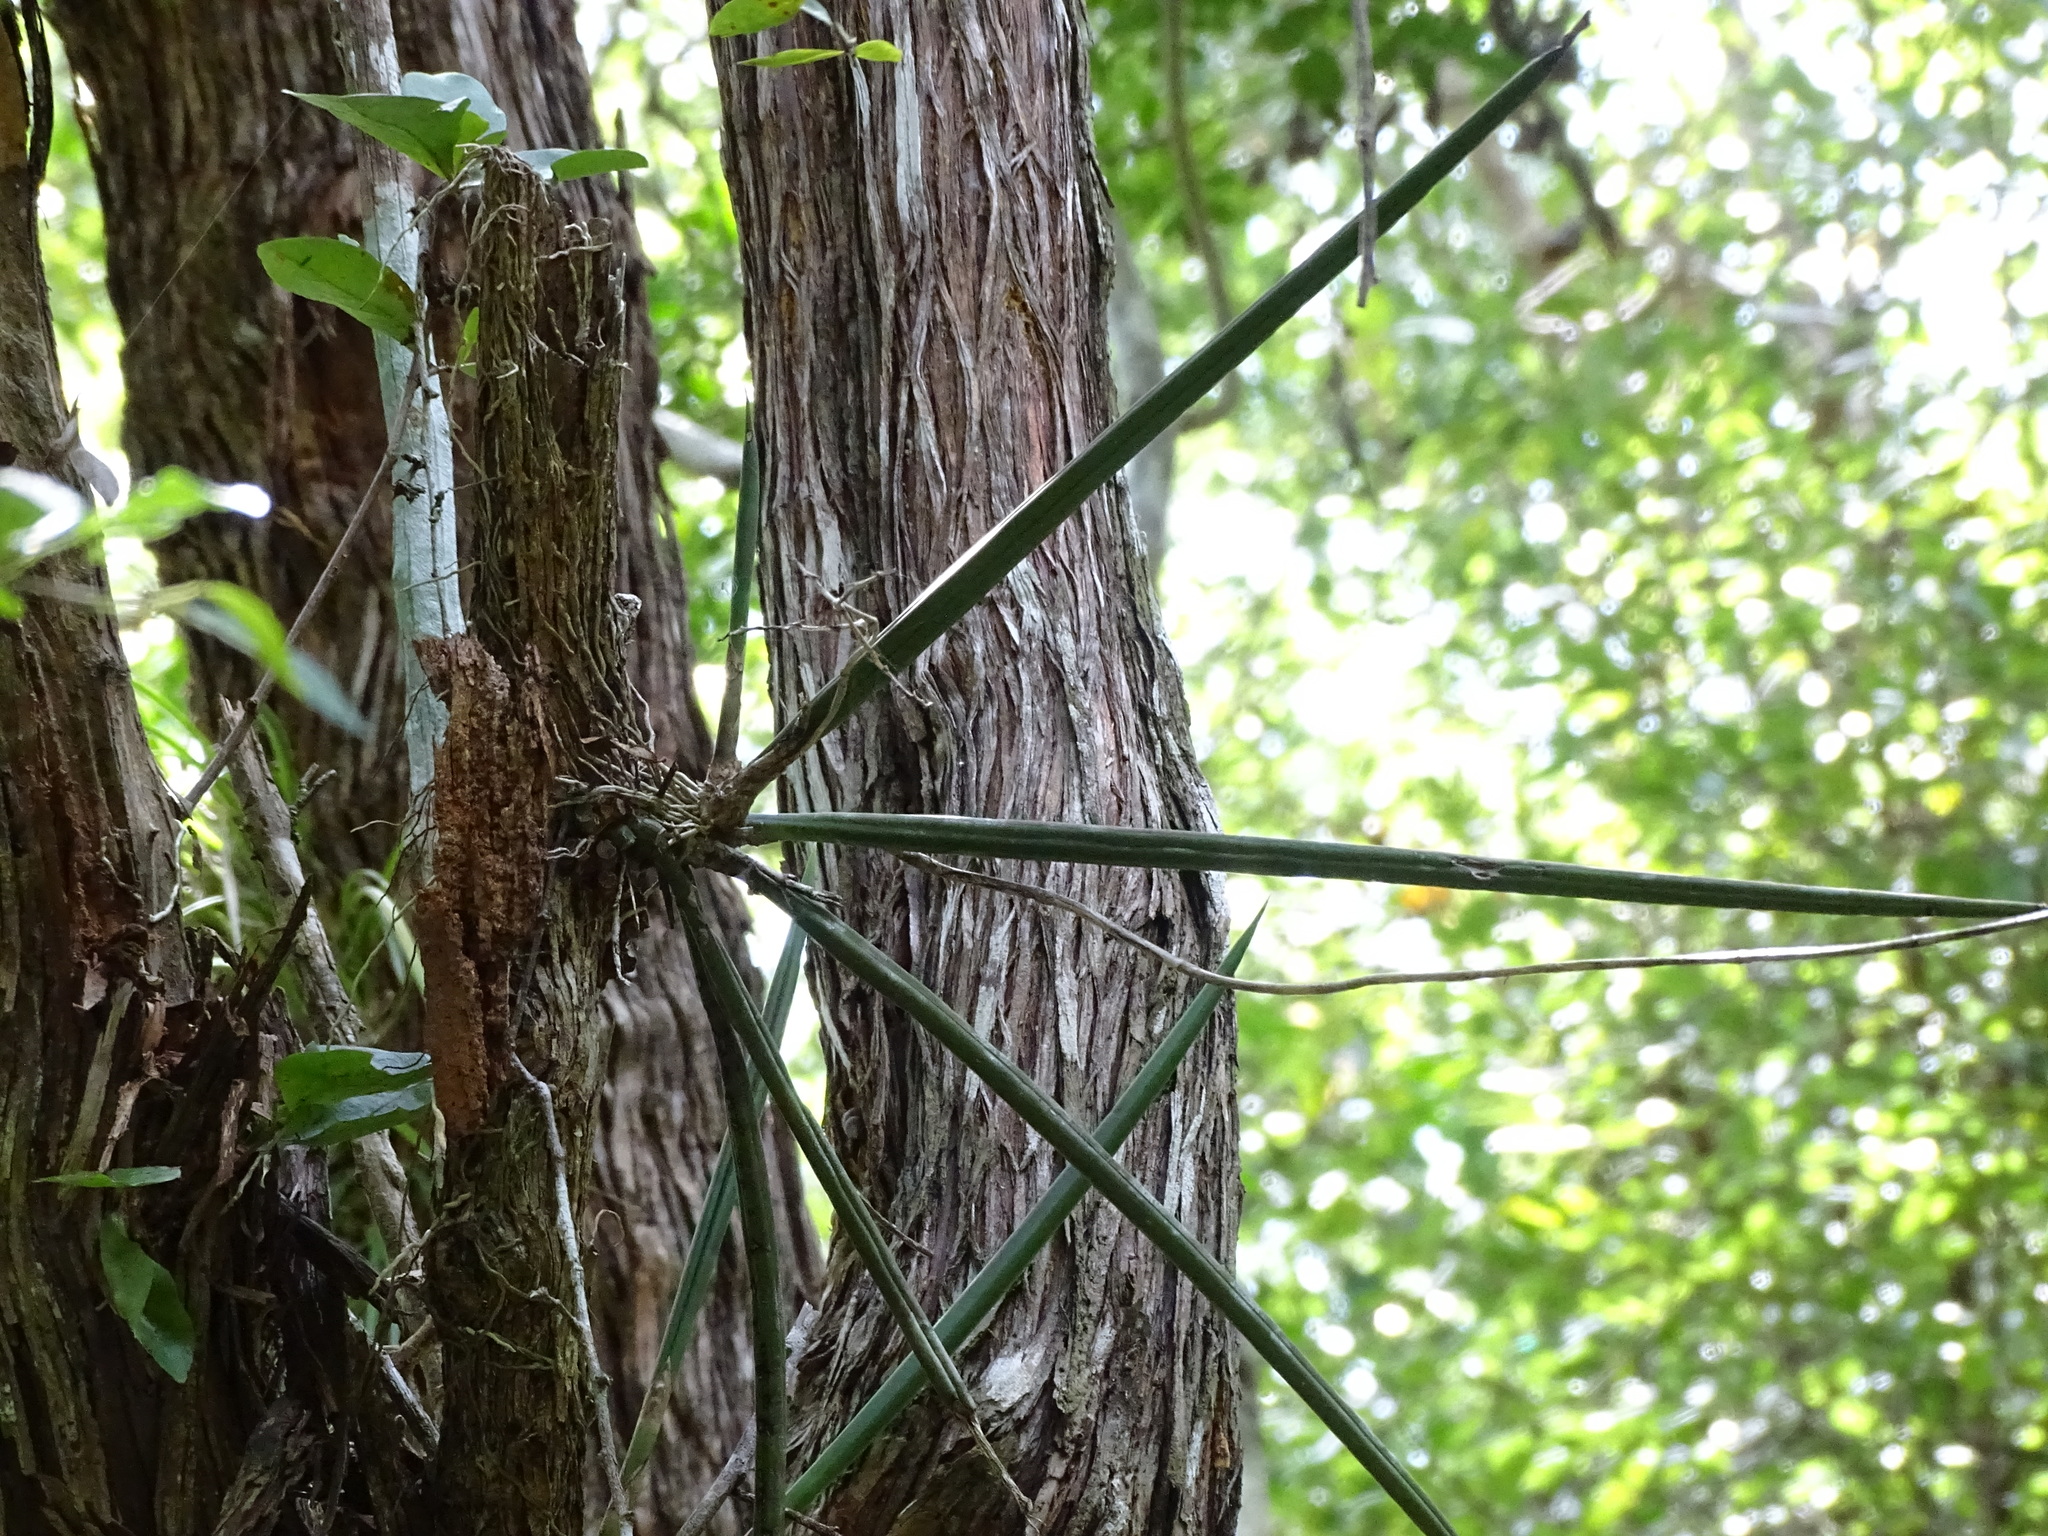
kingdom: Plantae
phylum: Tracheophyta
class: Liliopsida
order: Asparagales
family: Orchidaceae
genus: Trichocentrum
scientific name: Trichocentrum yucatanense
